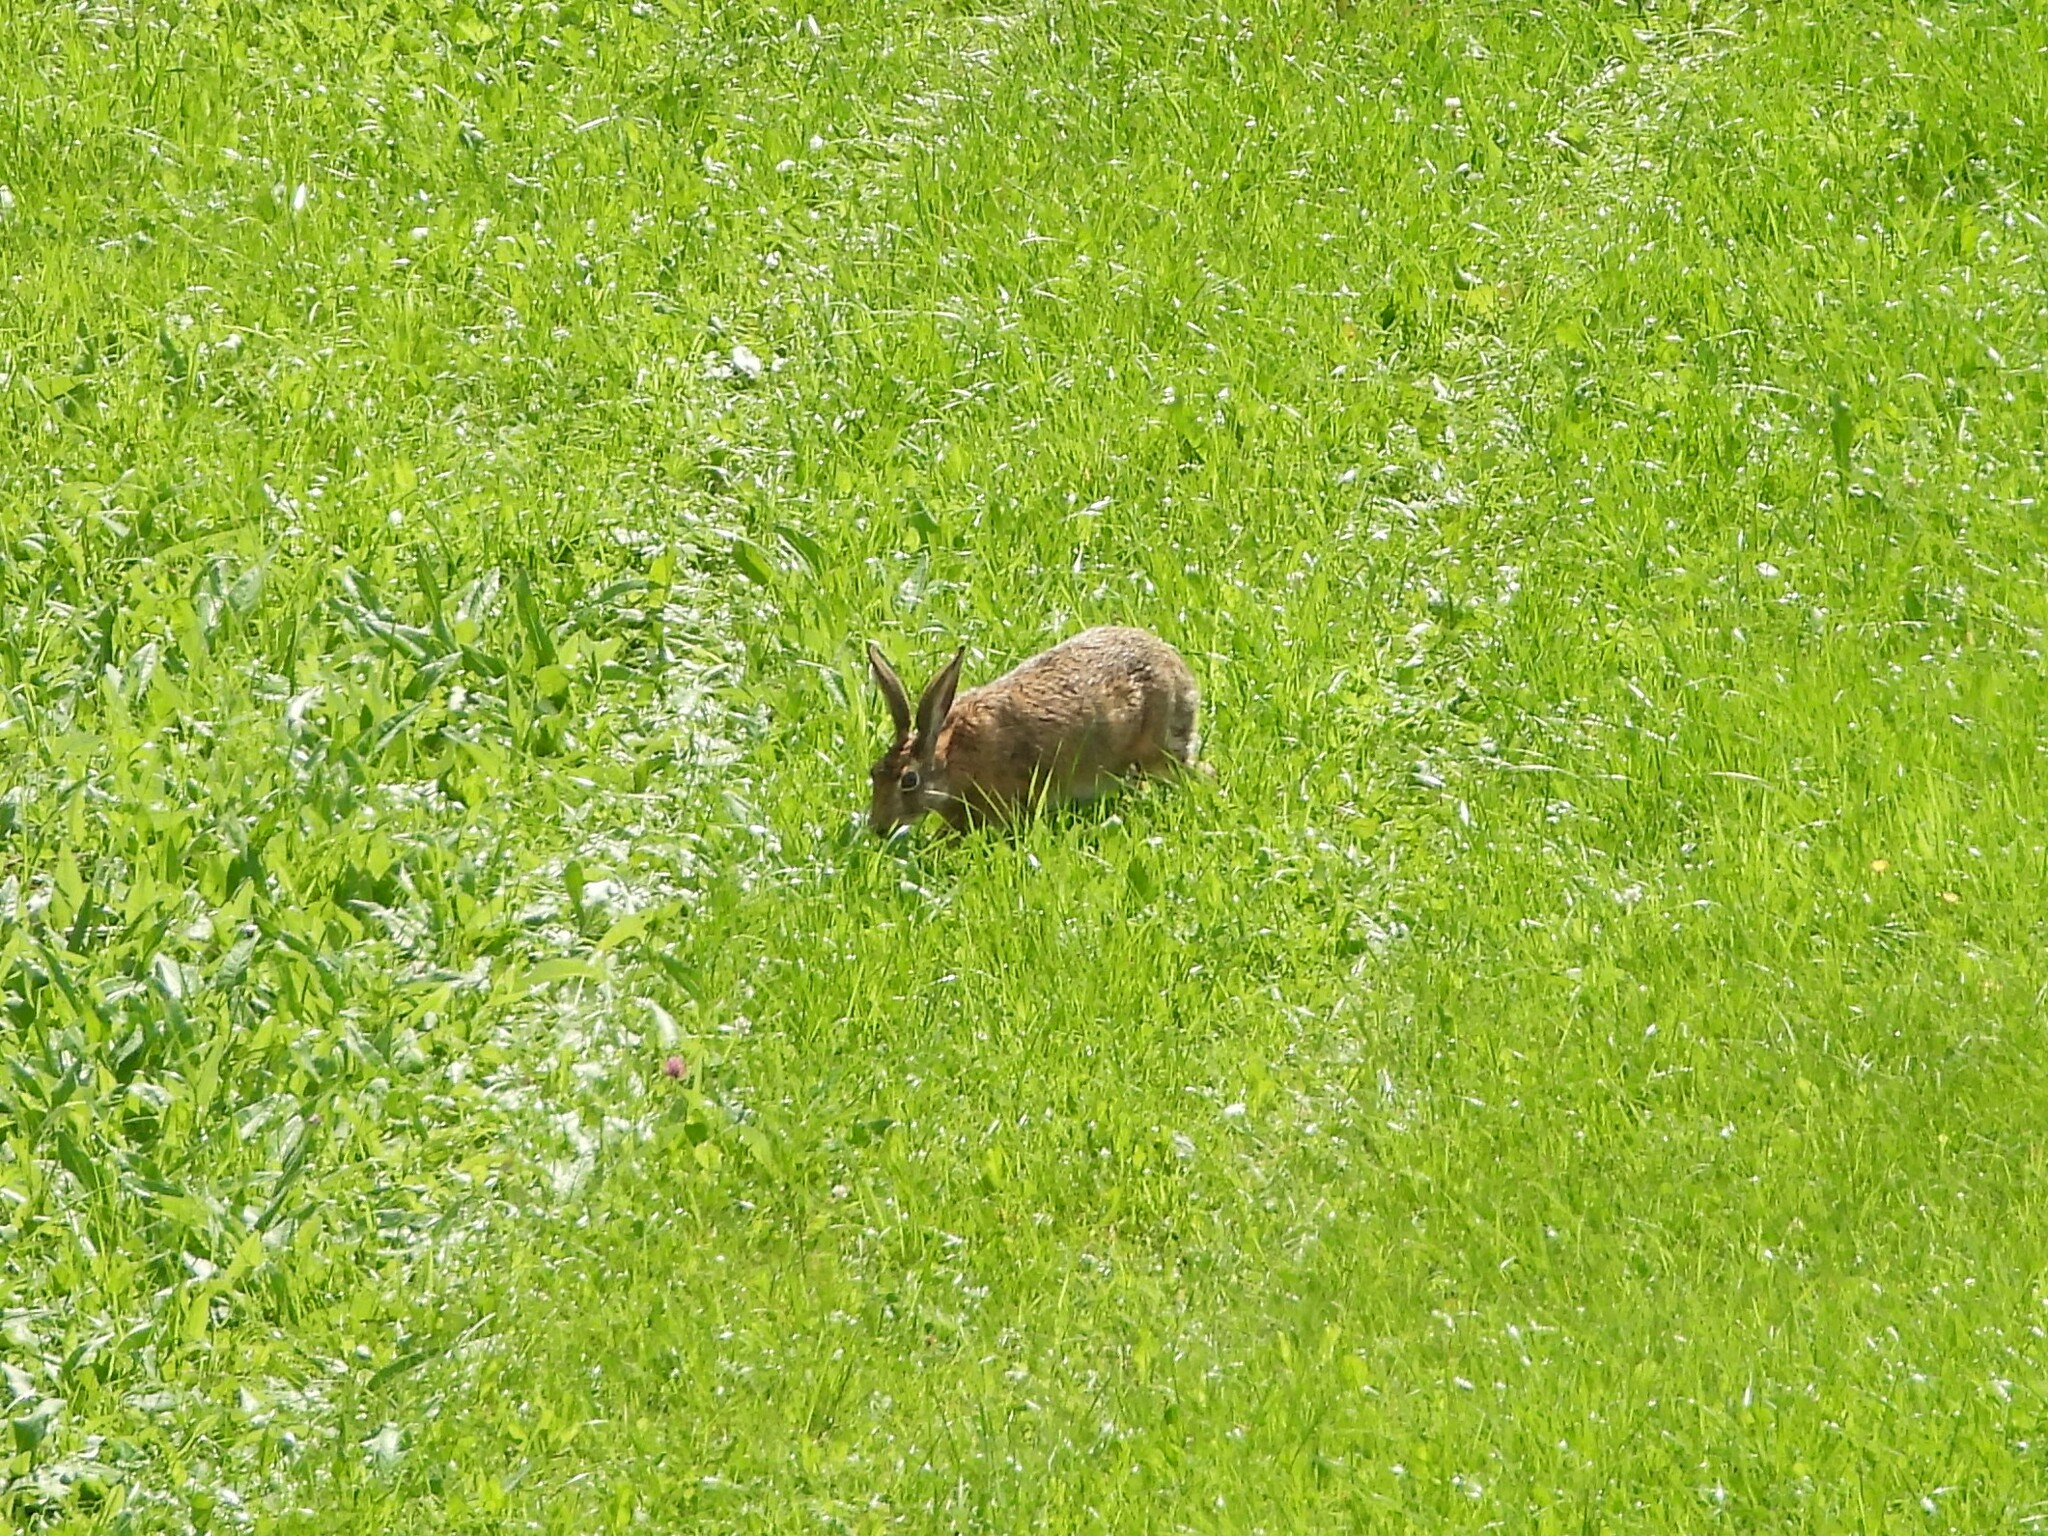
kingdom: Animalia
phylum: Chordata
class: Mammalia
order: Lagomorpha
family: Leporidae
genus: Lepus
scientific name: Lepus europaeus
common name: European hare
